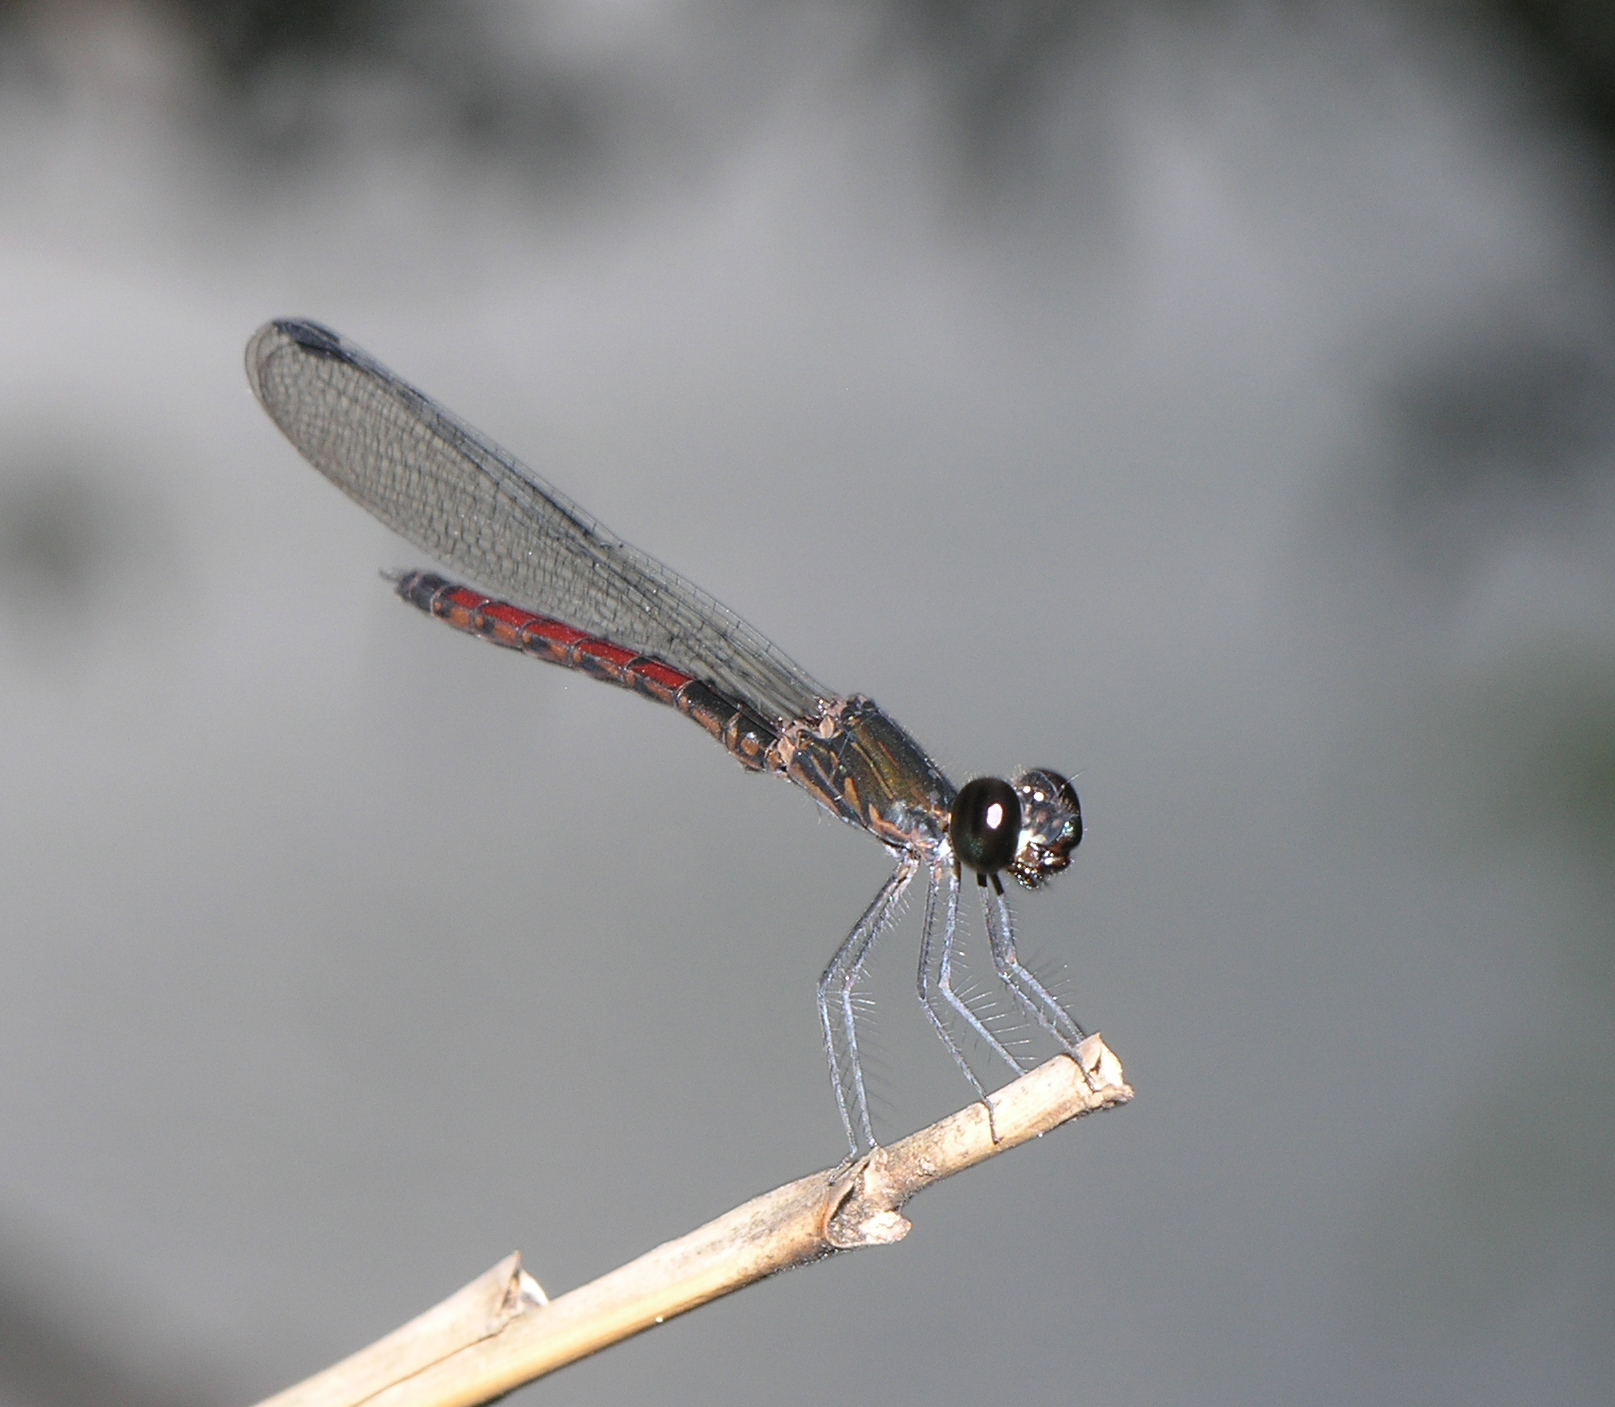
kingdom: Animalia
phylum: Arthropoda
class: Insecta
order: Odonata
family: Chlorocyphidae
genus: Libellago
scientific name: Libellago hyalina
